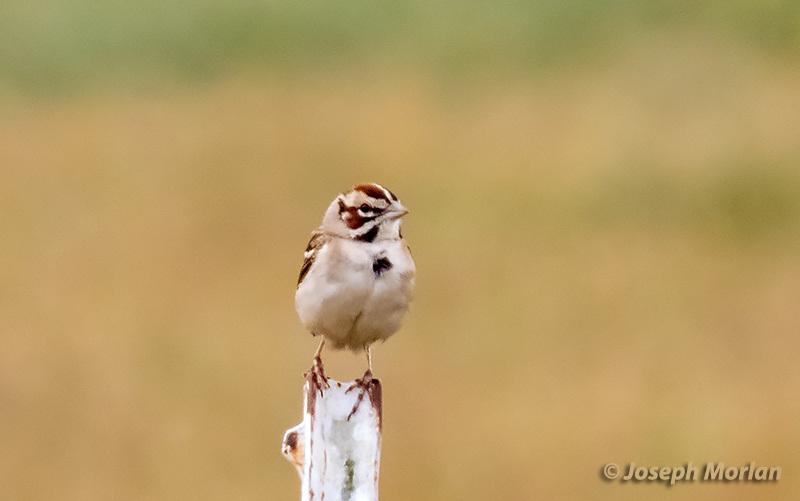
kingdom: Animalia
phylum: Chordata
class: Aves
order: Passeriformes
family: Passerellidae
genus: Chondestes
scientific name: Chondestes grammacus
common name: Lark sparrow
